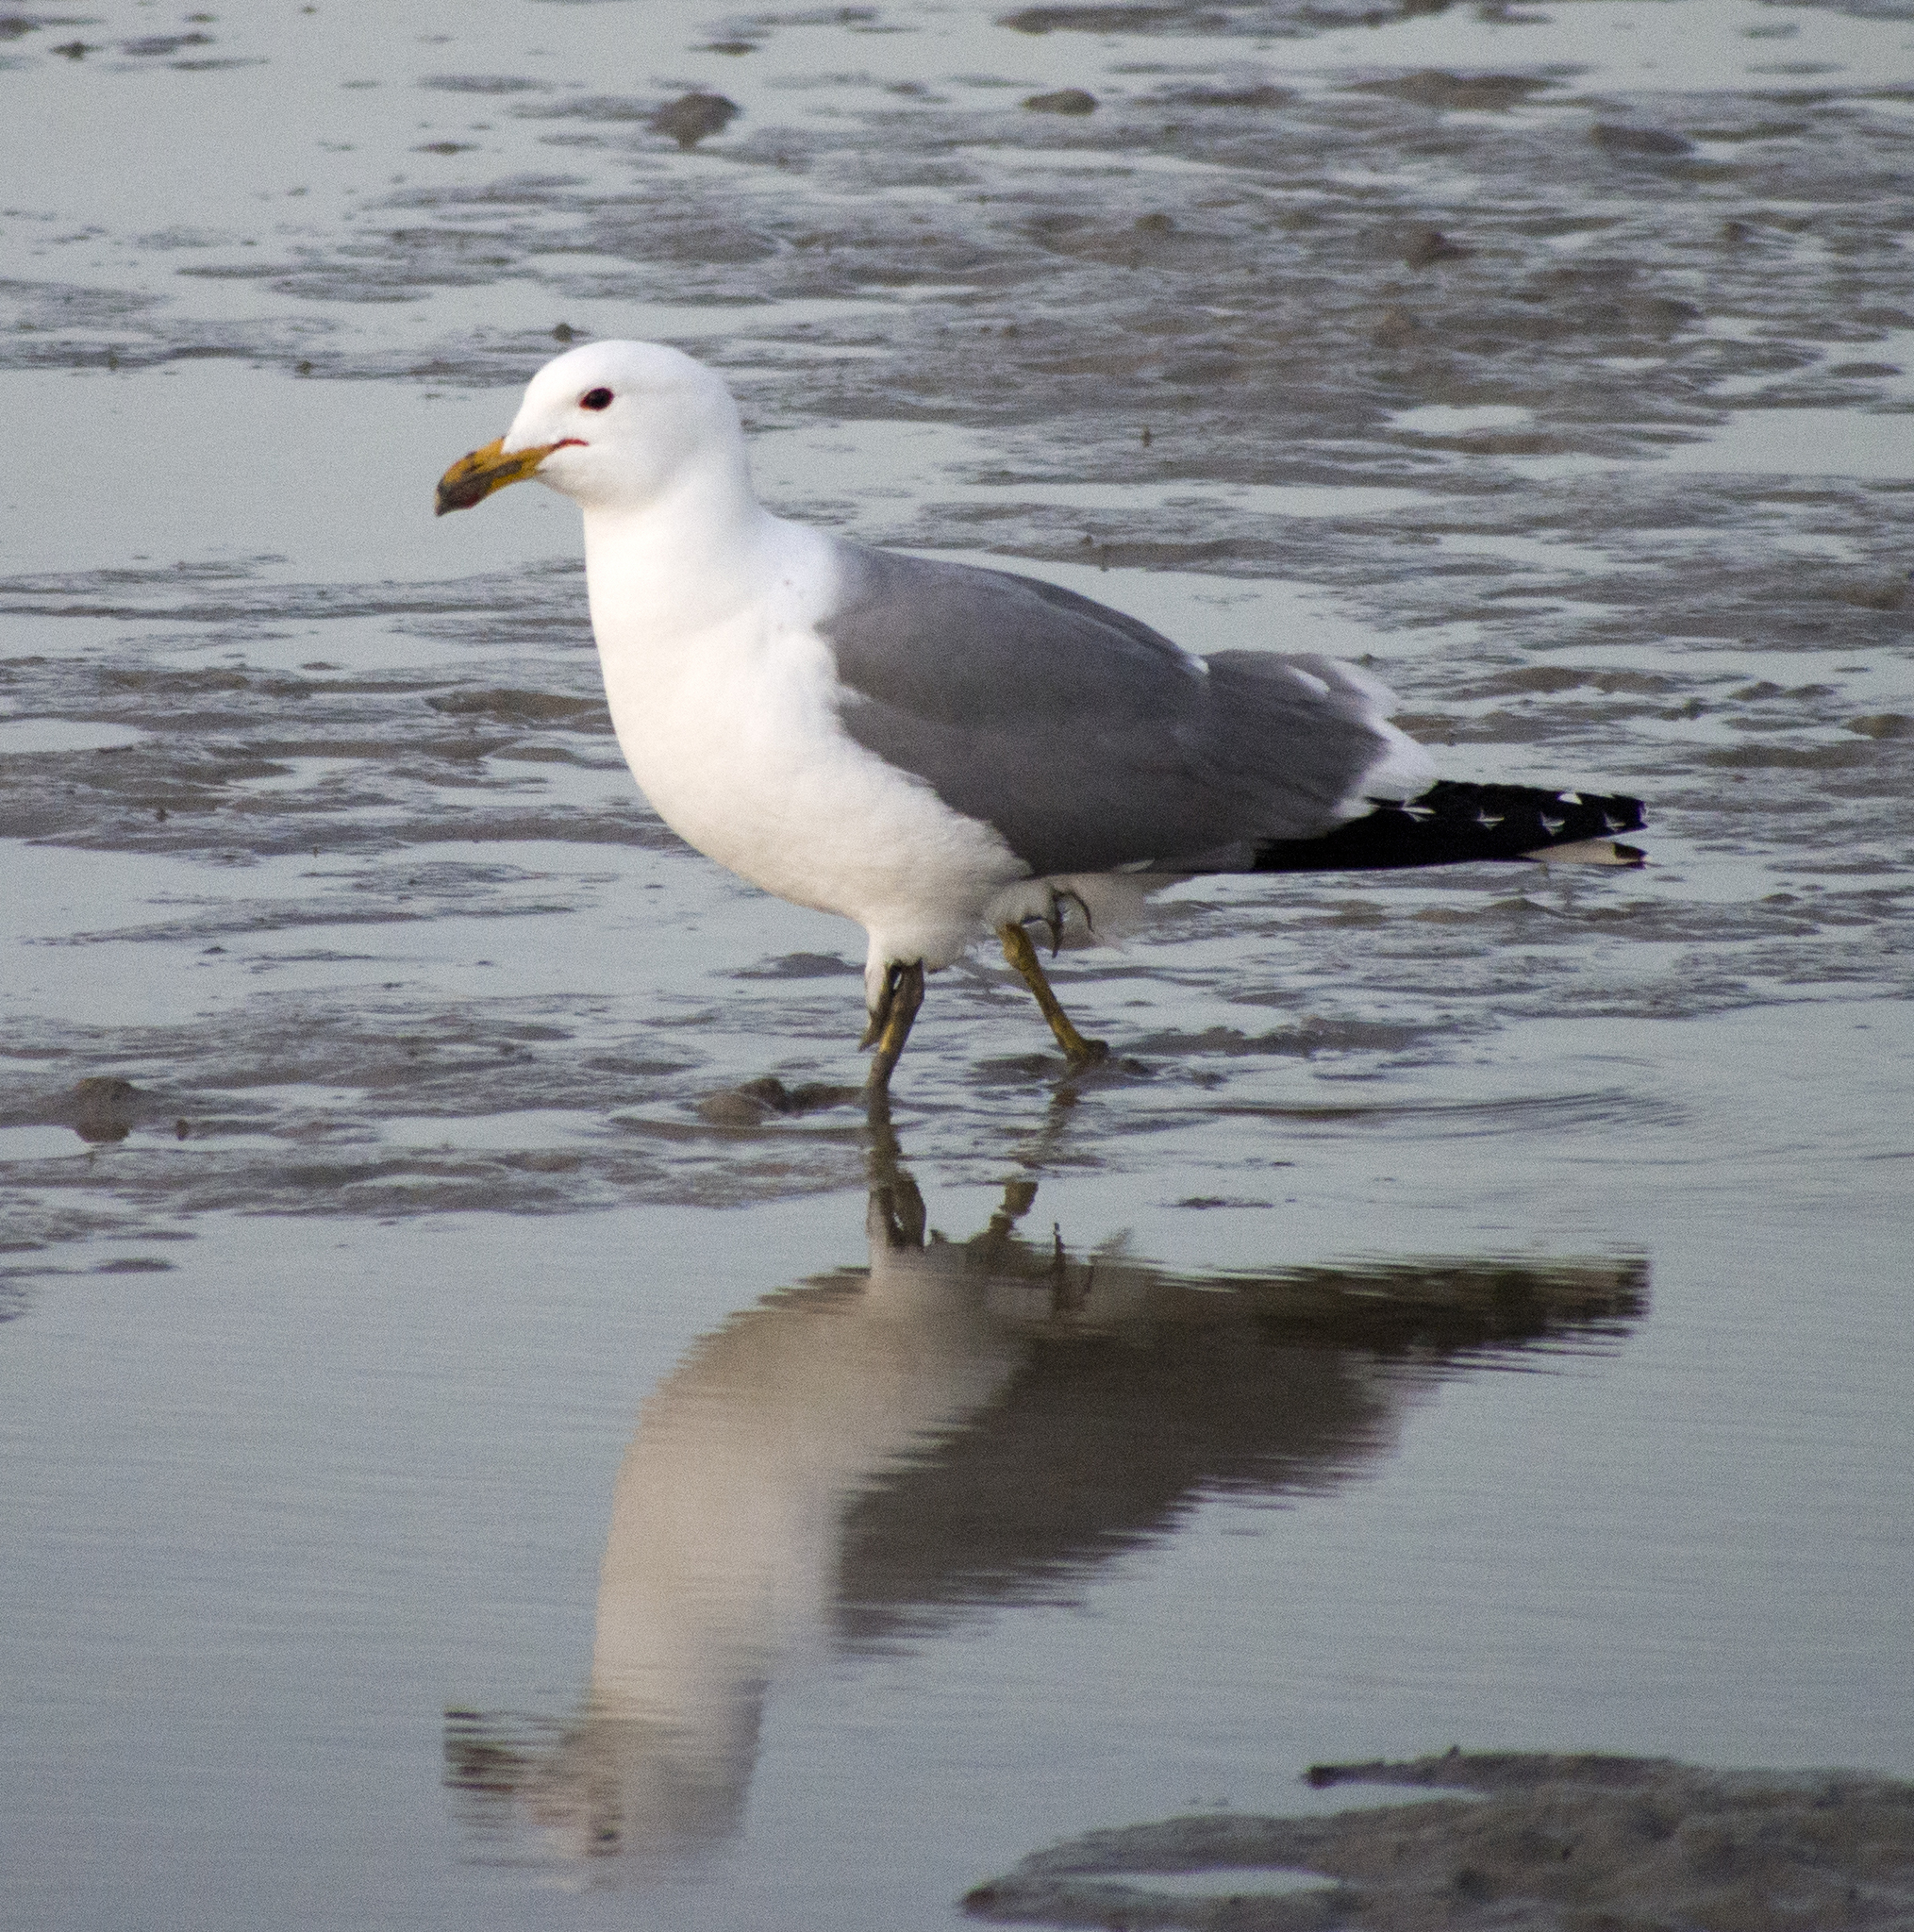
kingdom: Animalia
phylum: Chordata
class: Aves
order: Charadriiformes
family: Laridae
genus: Larus
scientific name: Larus californicus
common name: California gull
